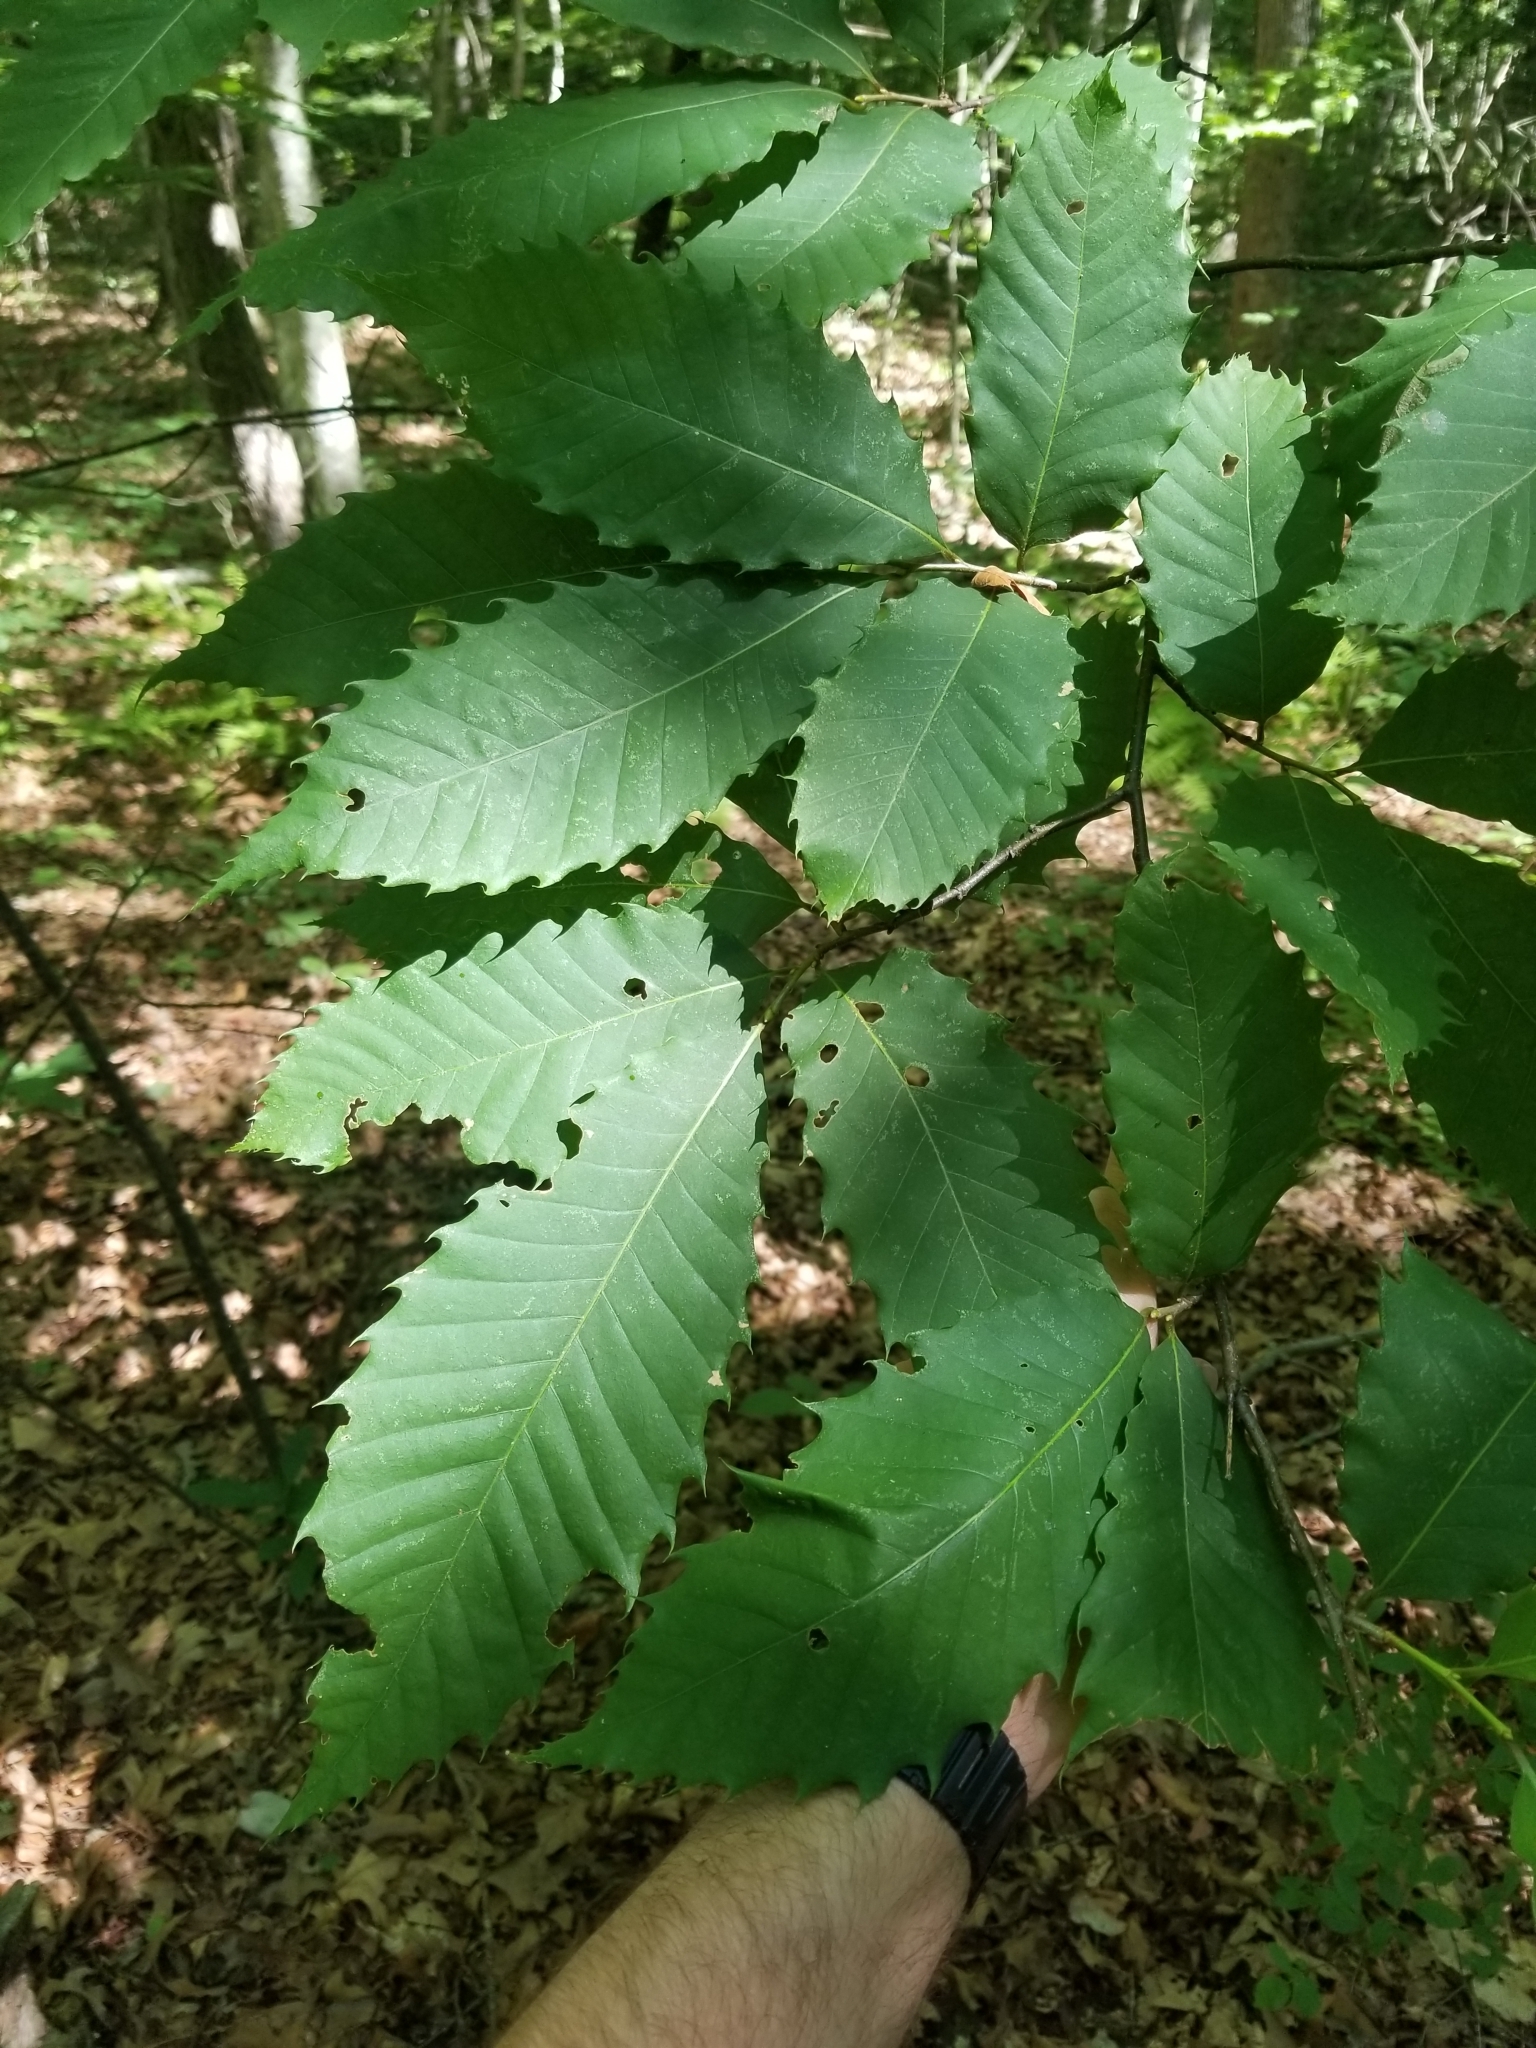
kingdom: Plantae
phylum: Tracheophyta
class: Magnoliopsida
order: Fagales
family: Fagaceae
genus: Castanea
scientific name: Castanea dentata
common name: American chestnut
